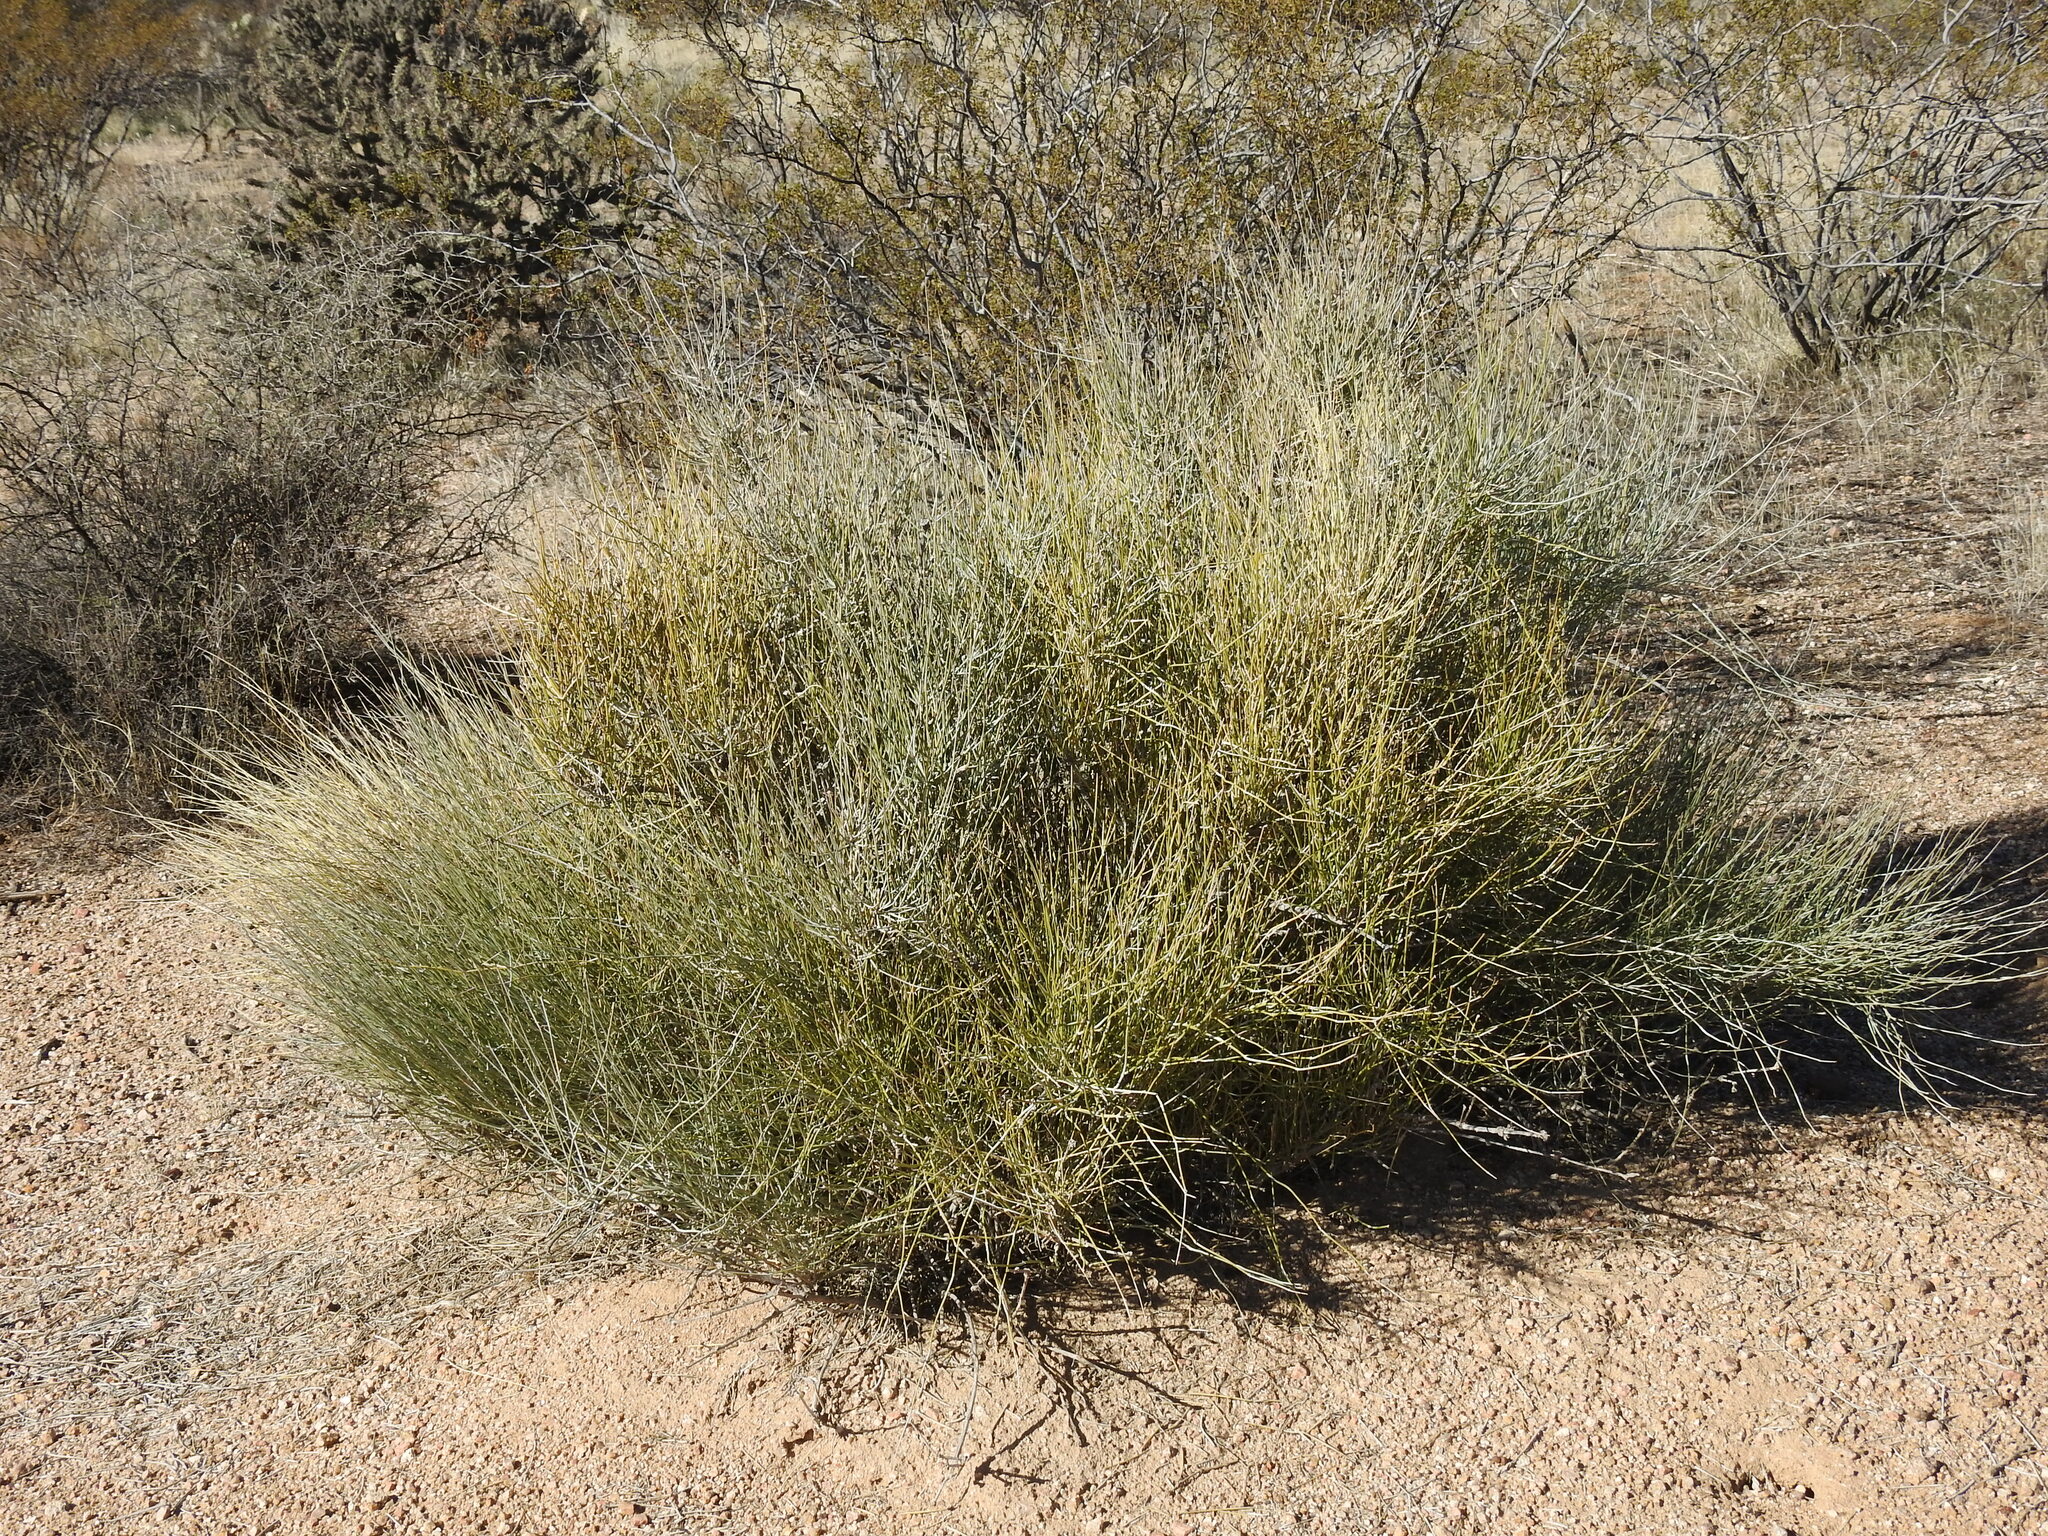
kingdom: Plantae
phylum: Tracheophyta
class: Gnetopsida
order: Ephedrales
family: Ephedraceae
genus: Ephedra
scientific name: Ephedra aspera
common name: Boundary ephedra
